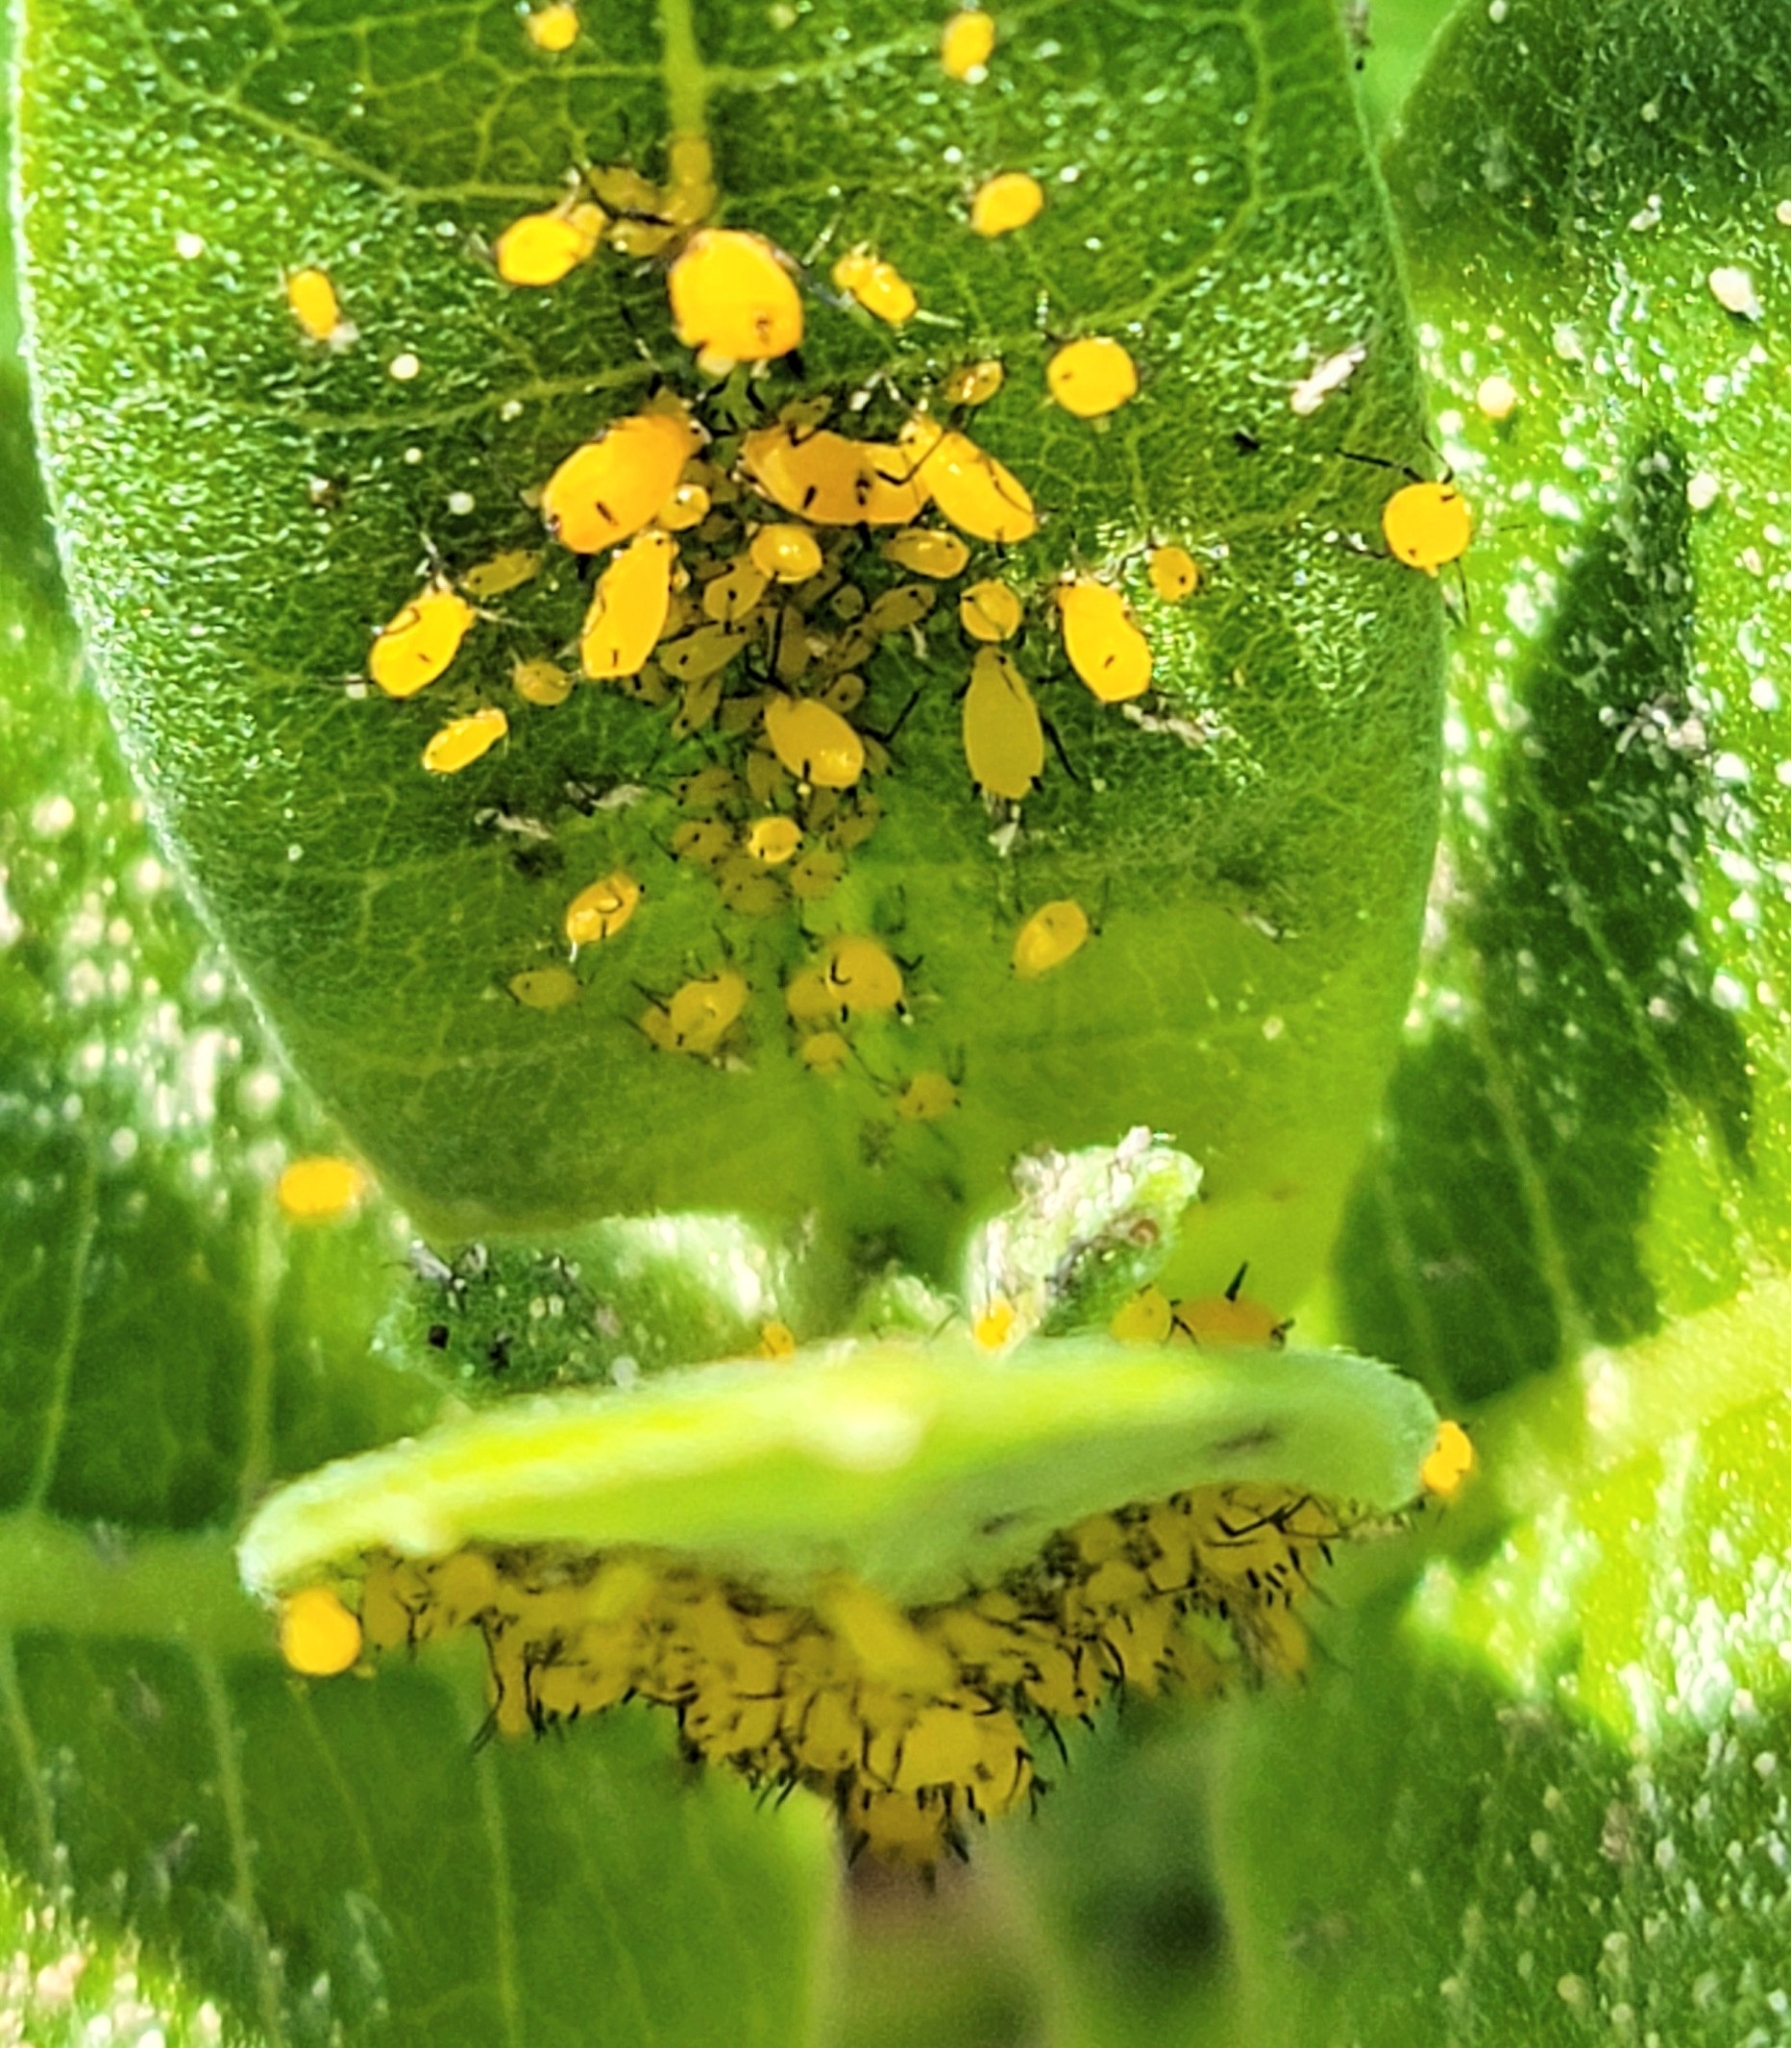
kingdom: Animalia
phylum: Arthropoda
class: Insecta
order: Hemiptera
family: Aphididae
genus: Aphis
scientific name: Aphis nerii
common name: Oleander aphid
